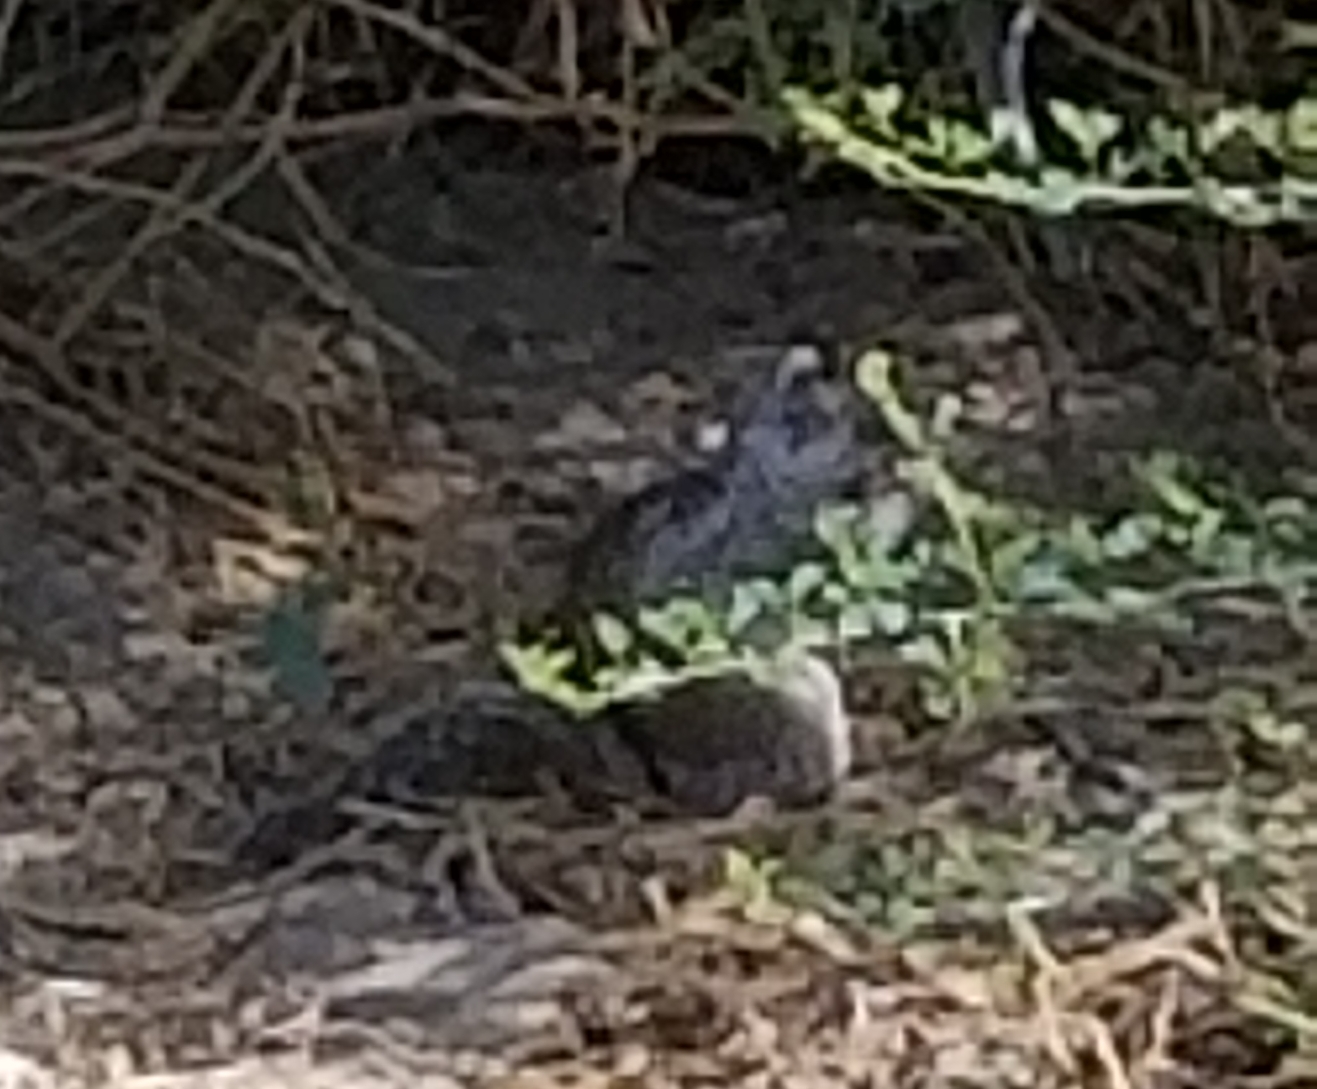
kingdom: Animalia
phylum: Chordata
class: Mammalia
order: Rodentia
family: Sciuridae
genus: Otospermophilus
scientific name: Otospermophilus beecheyi
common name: California ground squirrel
